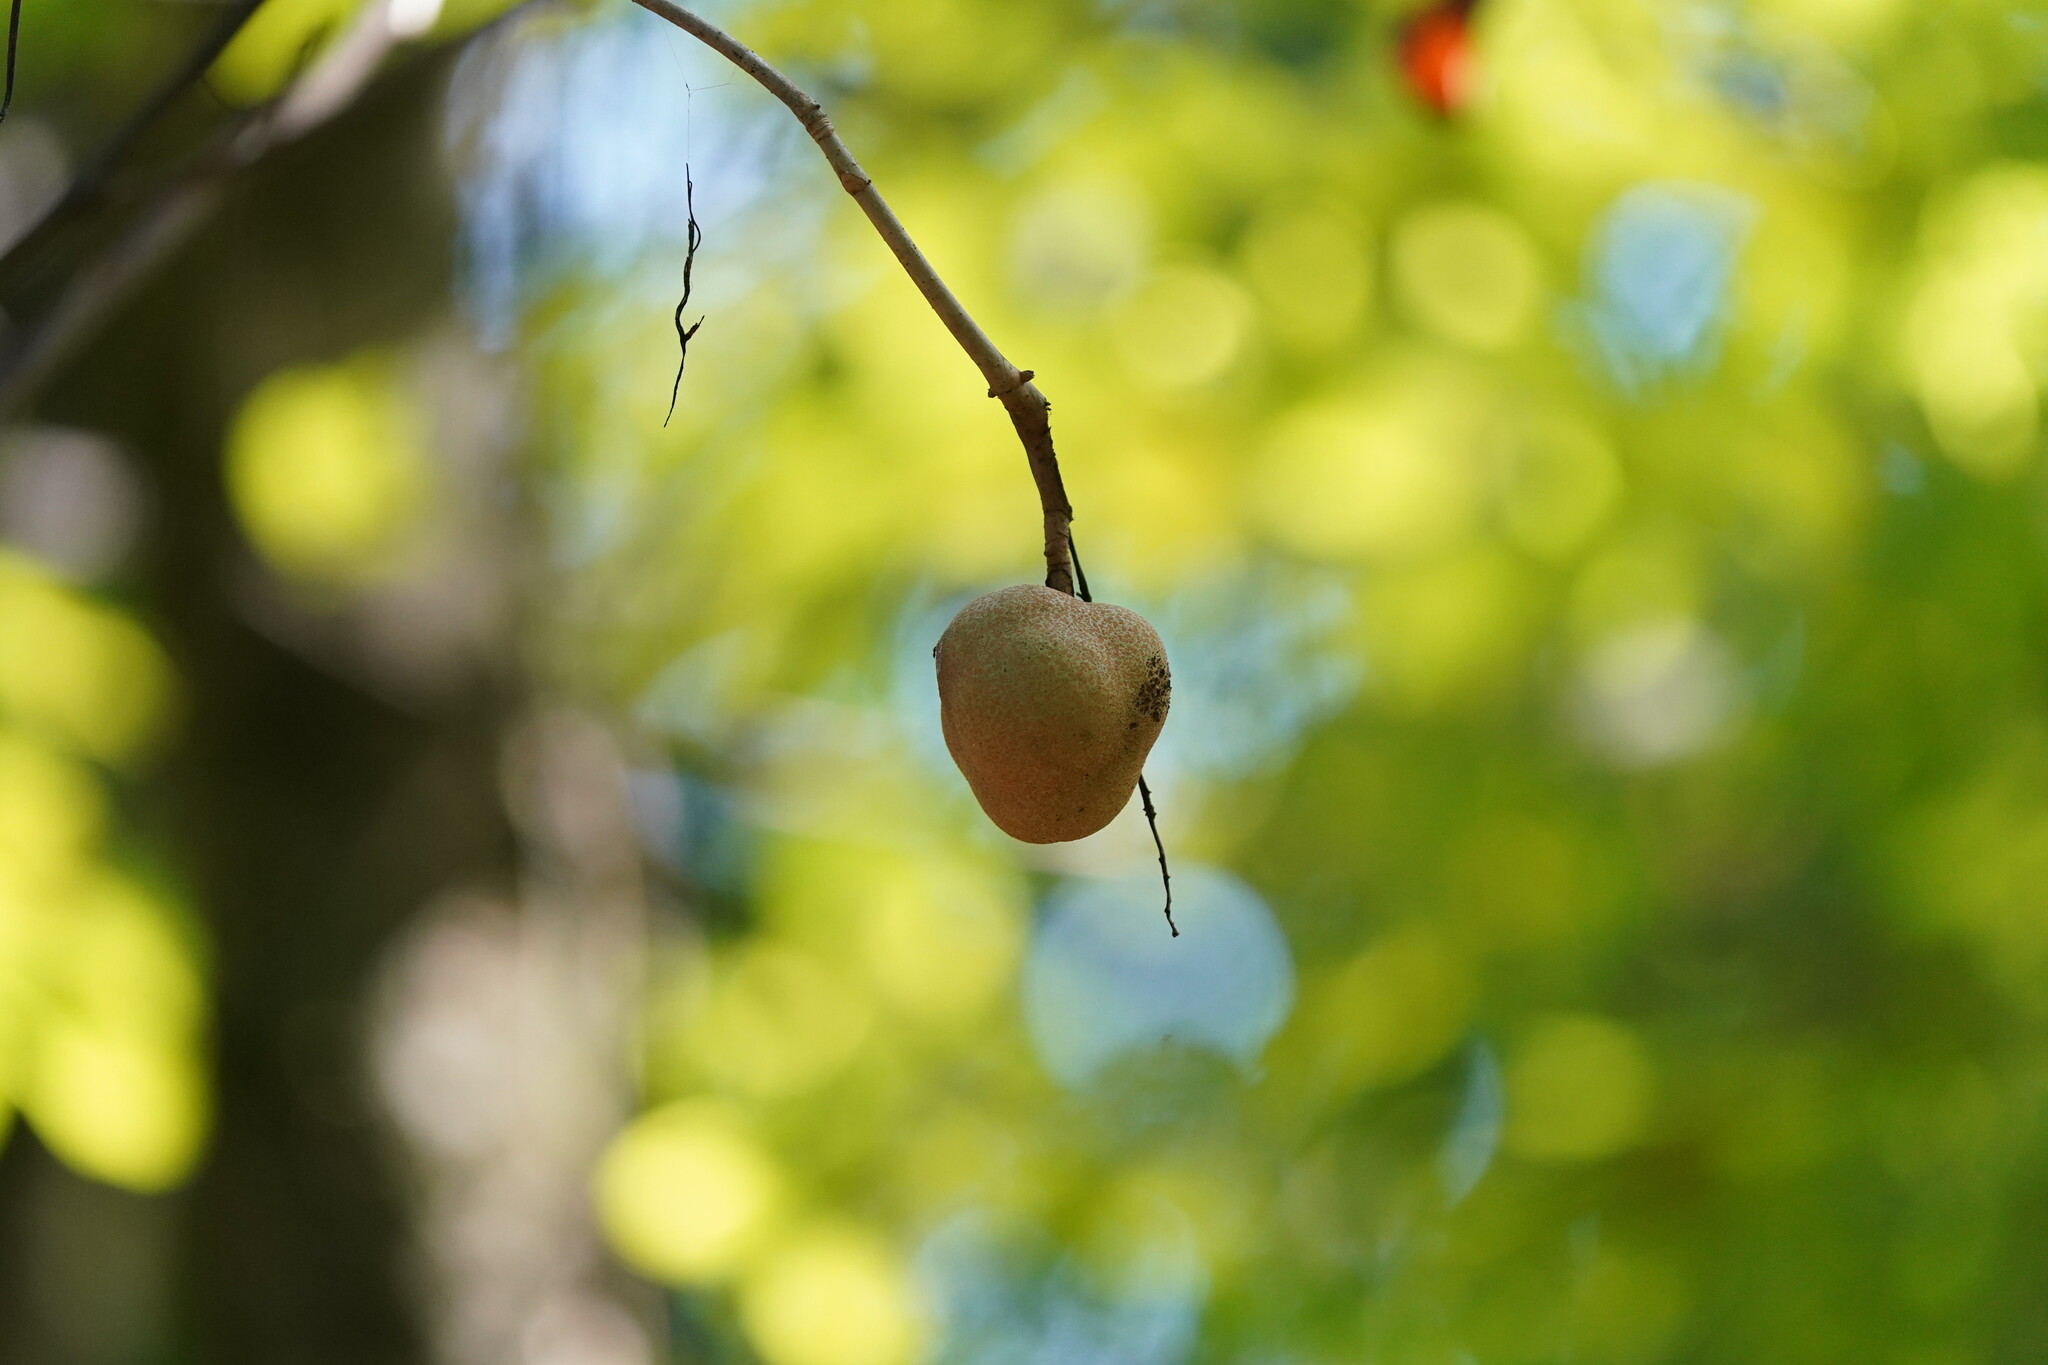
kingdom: Plantae
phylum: Tracheophyta
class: Magnoliopsida
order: Sapindales
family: Sapindaceae
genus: Aesculus
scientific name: Aesculus pavia
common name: Red buckeye
